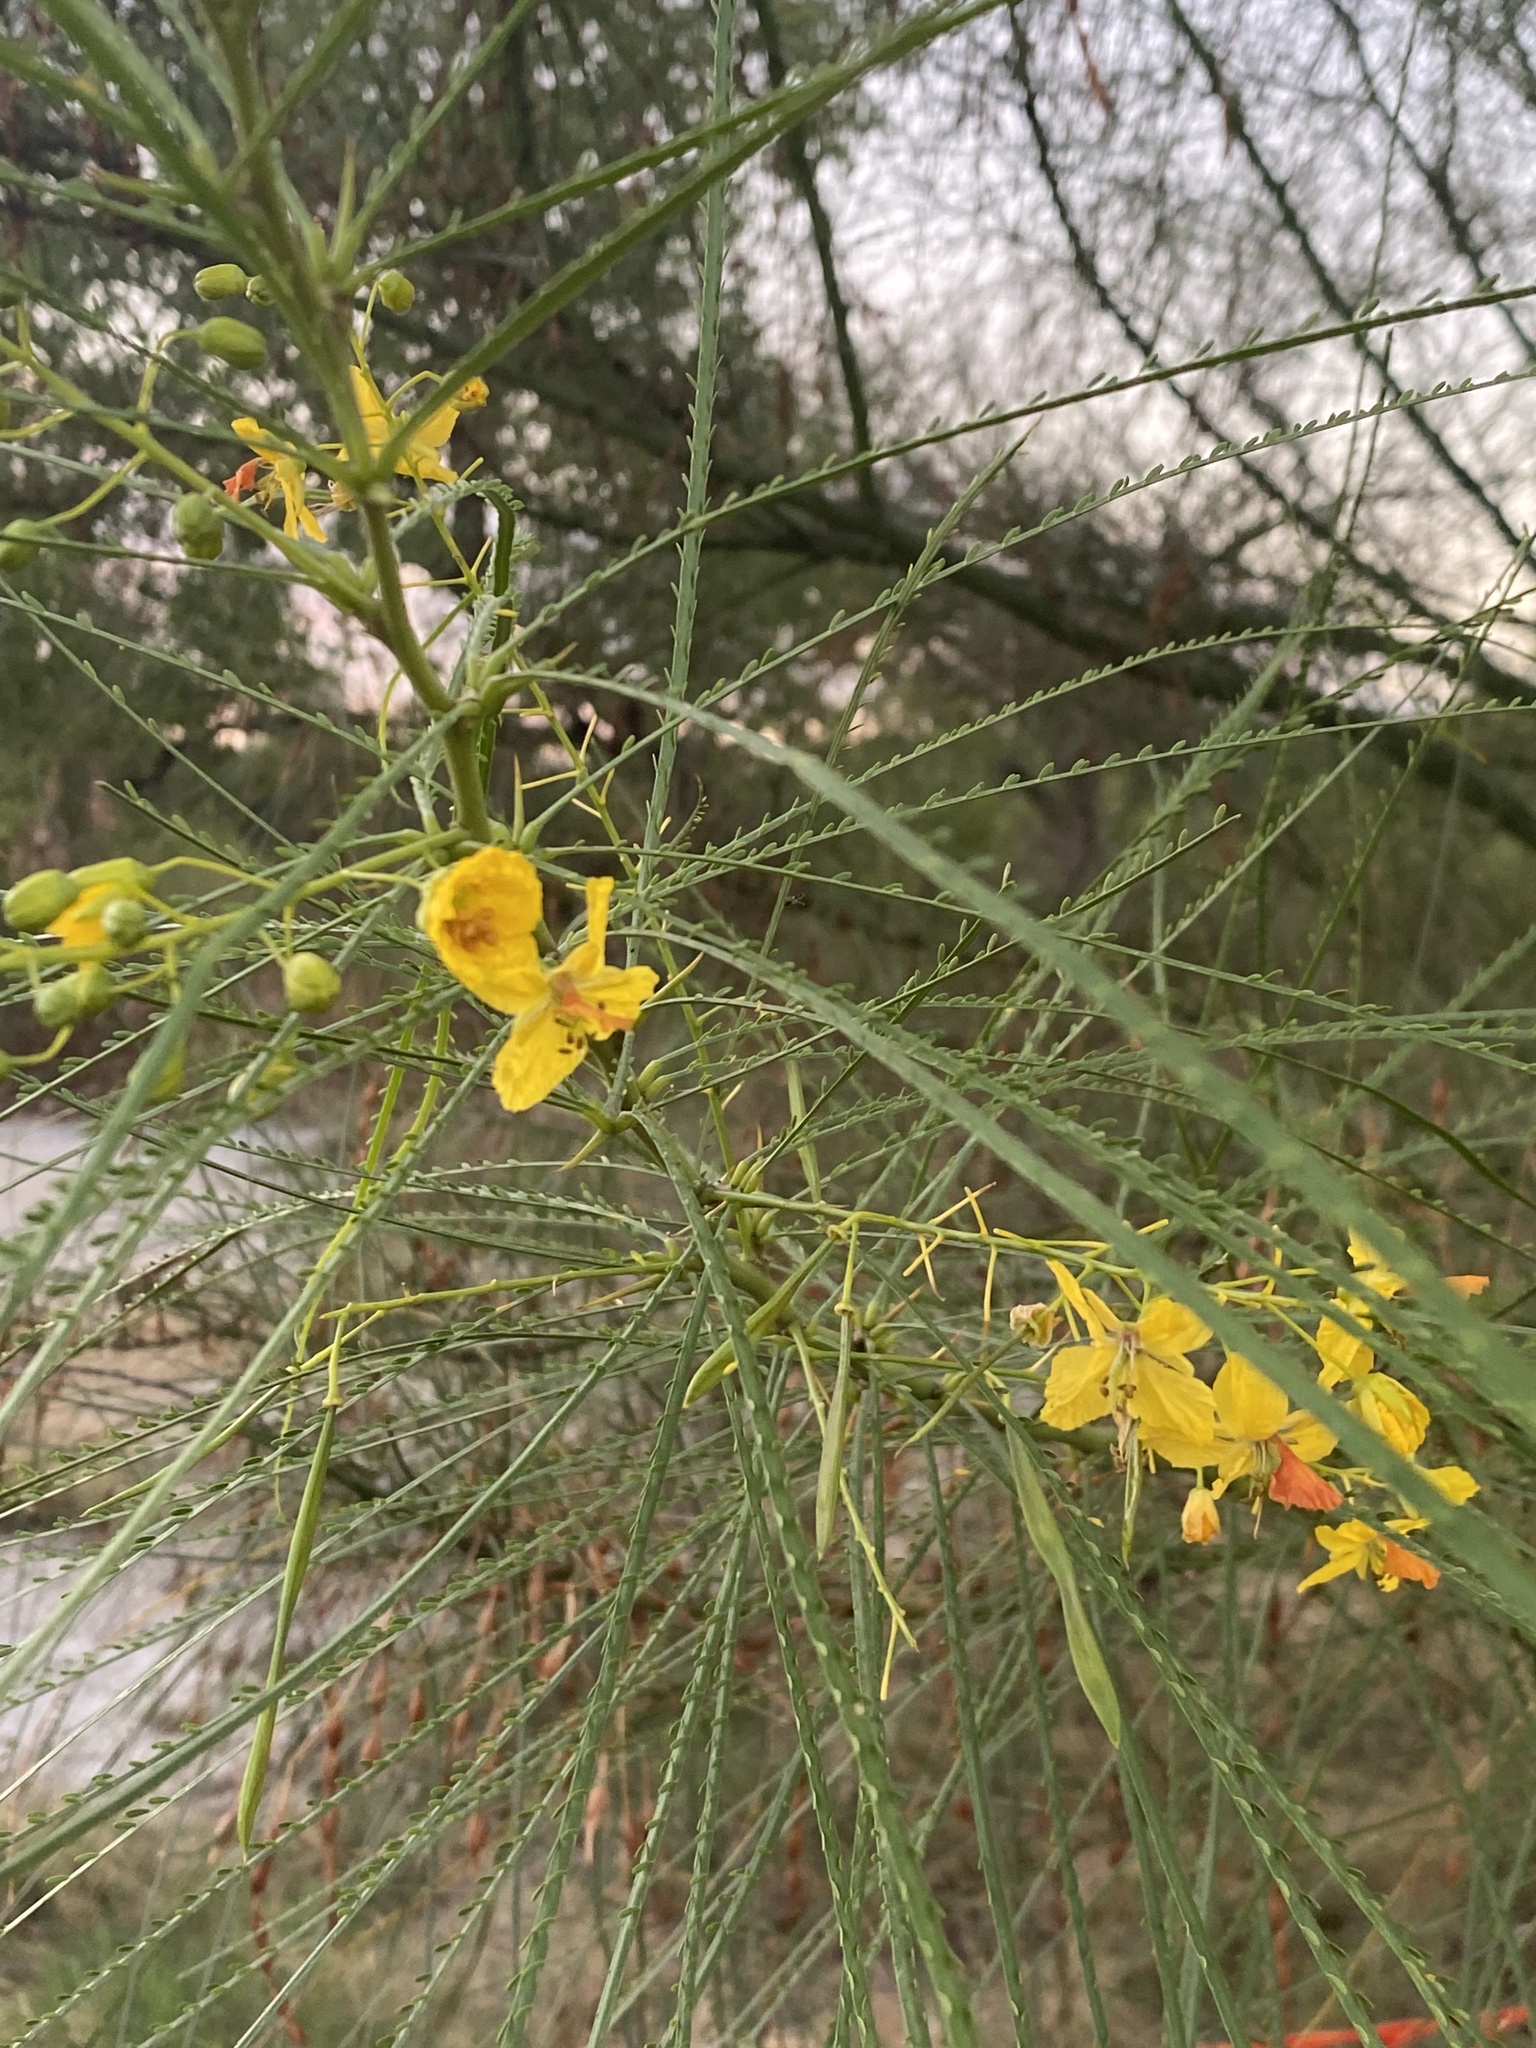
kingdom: Plantae
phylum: Tracheophyta
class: Magnoliopsida
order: Fabales
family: Fabaceae
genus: Parkinsonia
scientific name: Parkinsonia aculeata
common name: Jerusalem thorn
